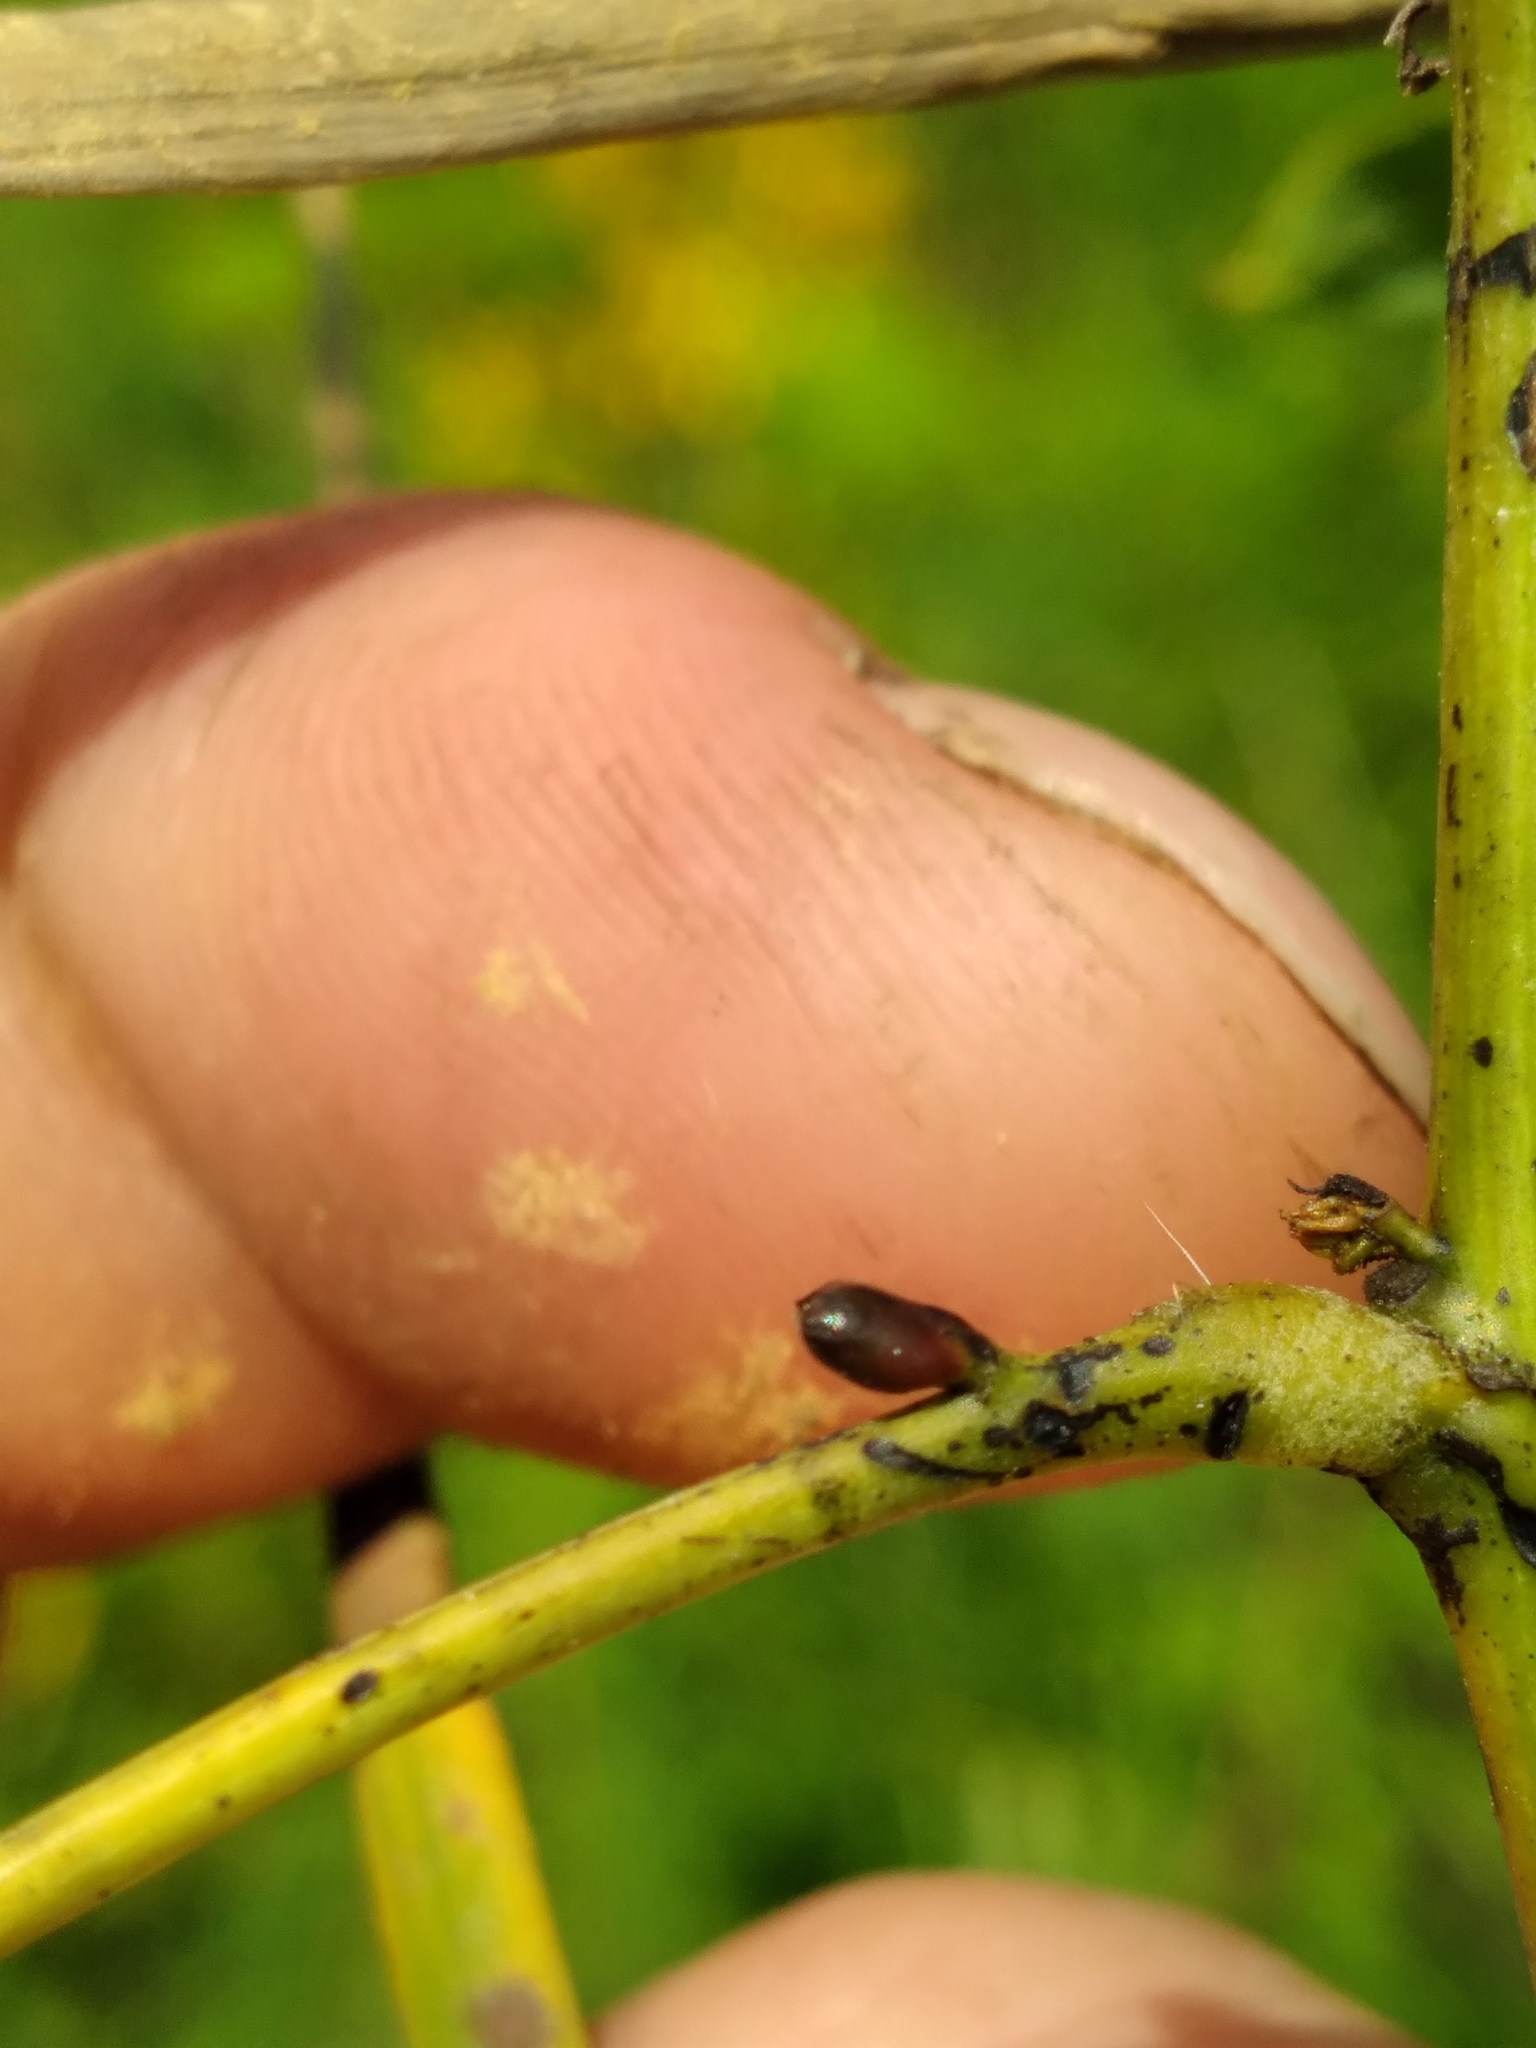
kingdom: Plantae
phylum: Tracheophyta
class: Magnoliopsida
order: Fabales
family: Fabaceae
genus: Senna
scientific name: Senna hebecarpa
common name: Wild senna
